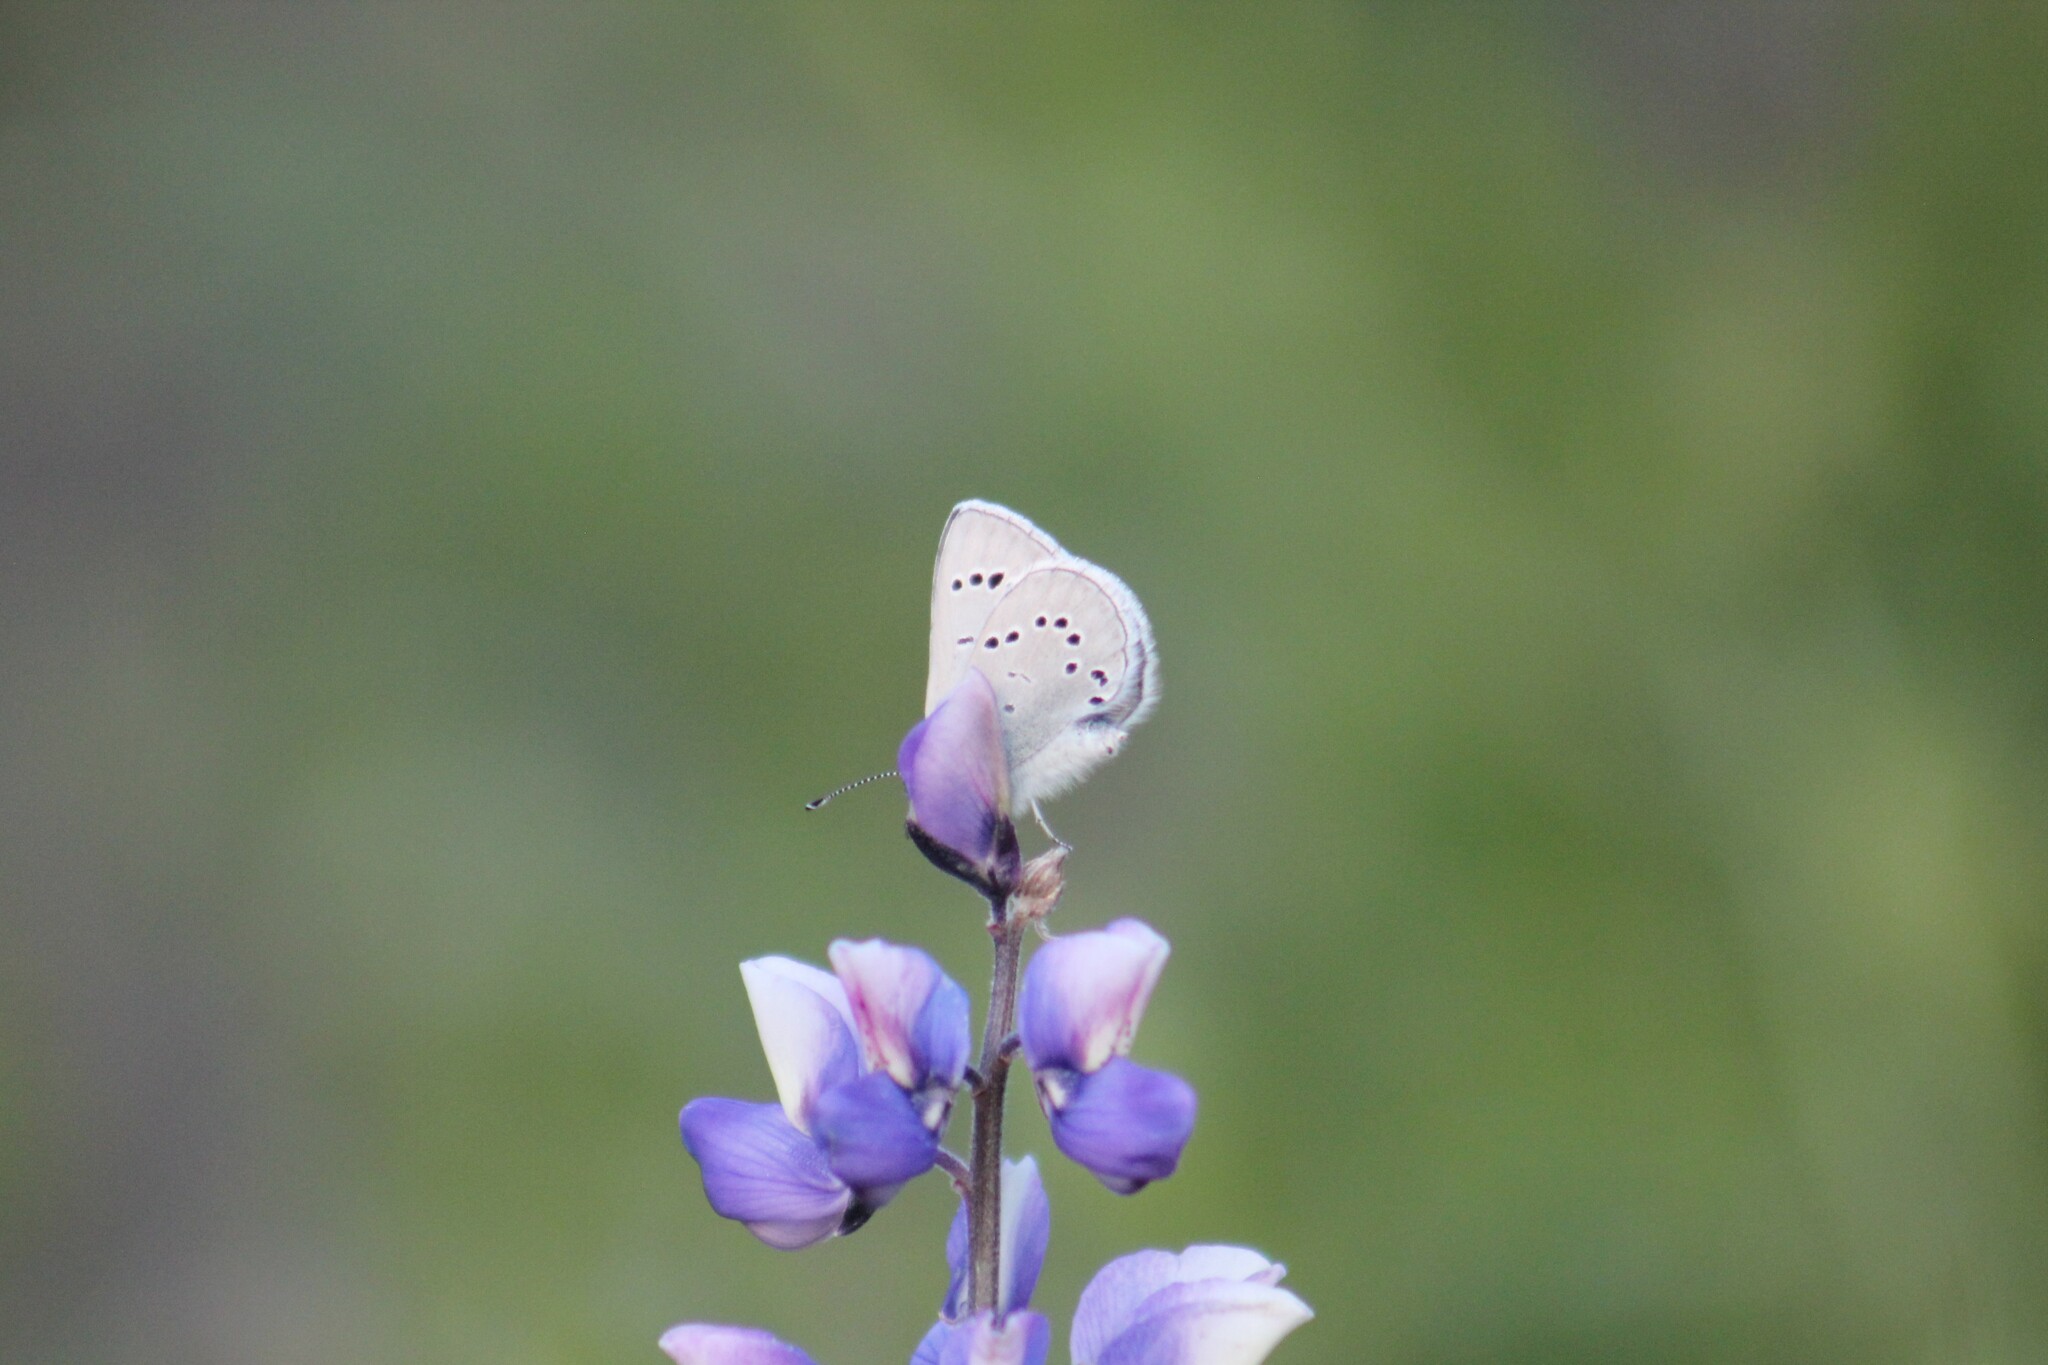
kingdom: Animalia
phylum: Arthropoda
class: Insecta
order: Lepidoptera
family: Lycaenidae
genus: Glaucopsyche
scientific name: Glaucopsyche lygdamus
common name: Silvery blue
